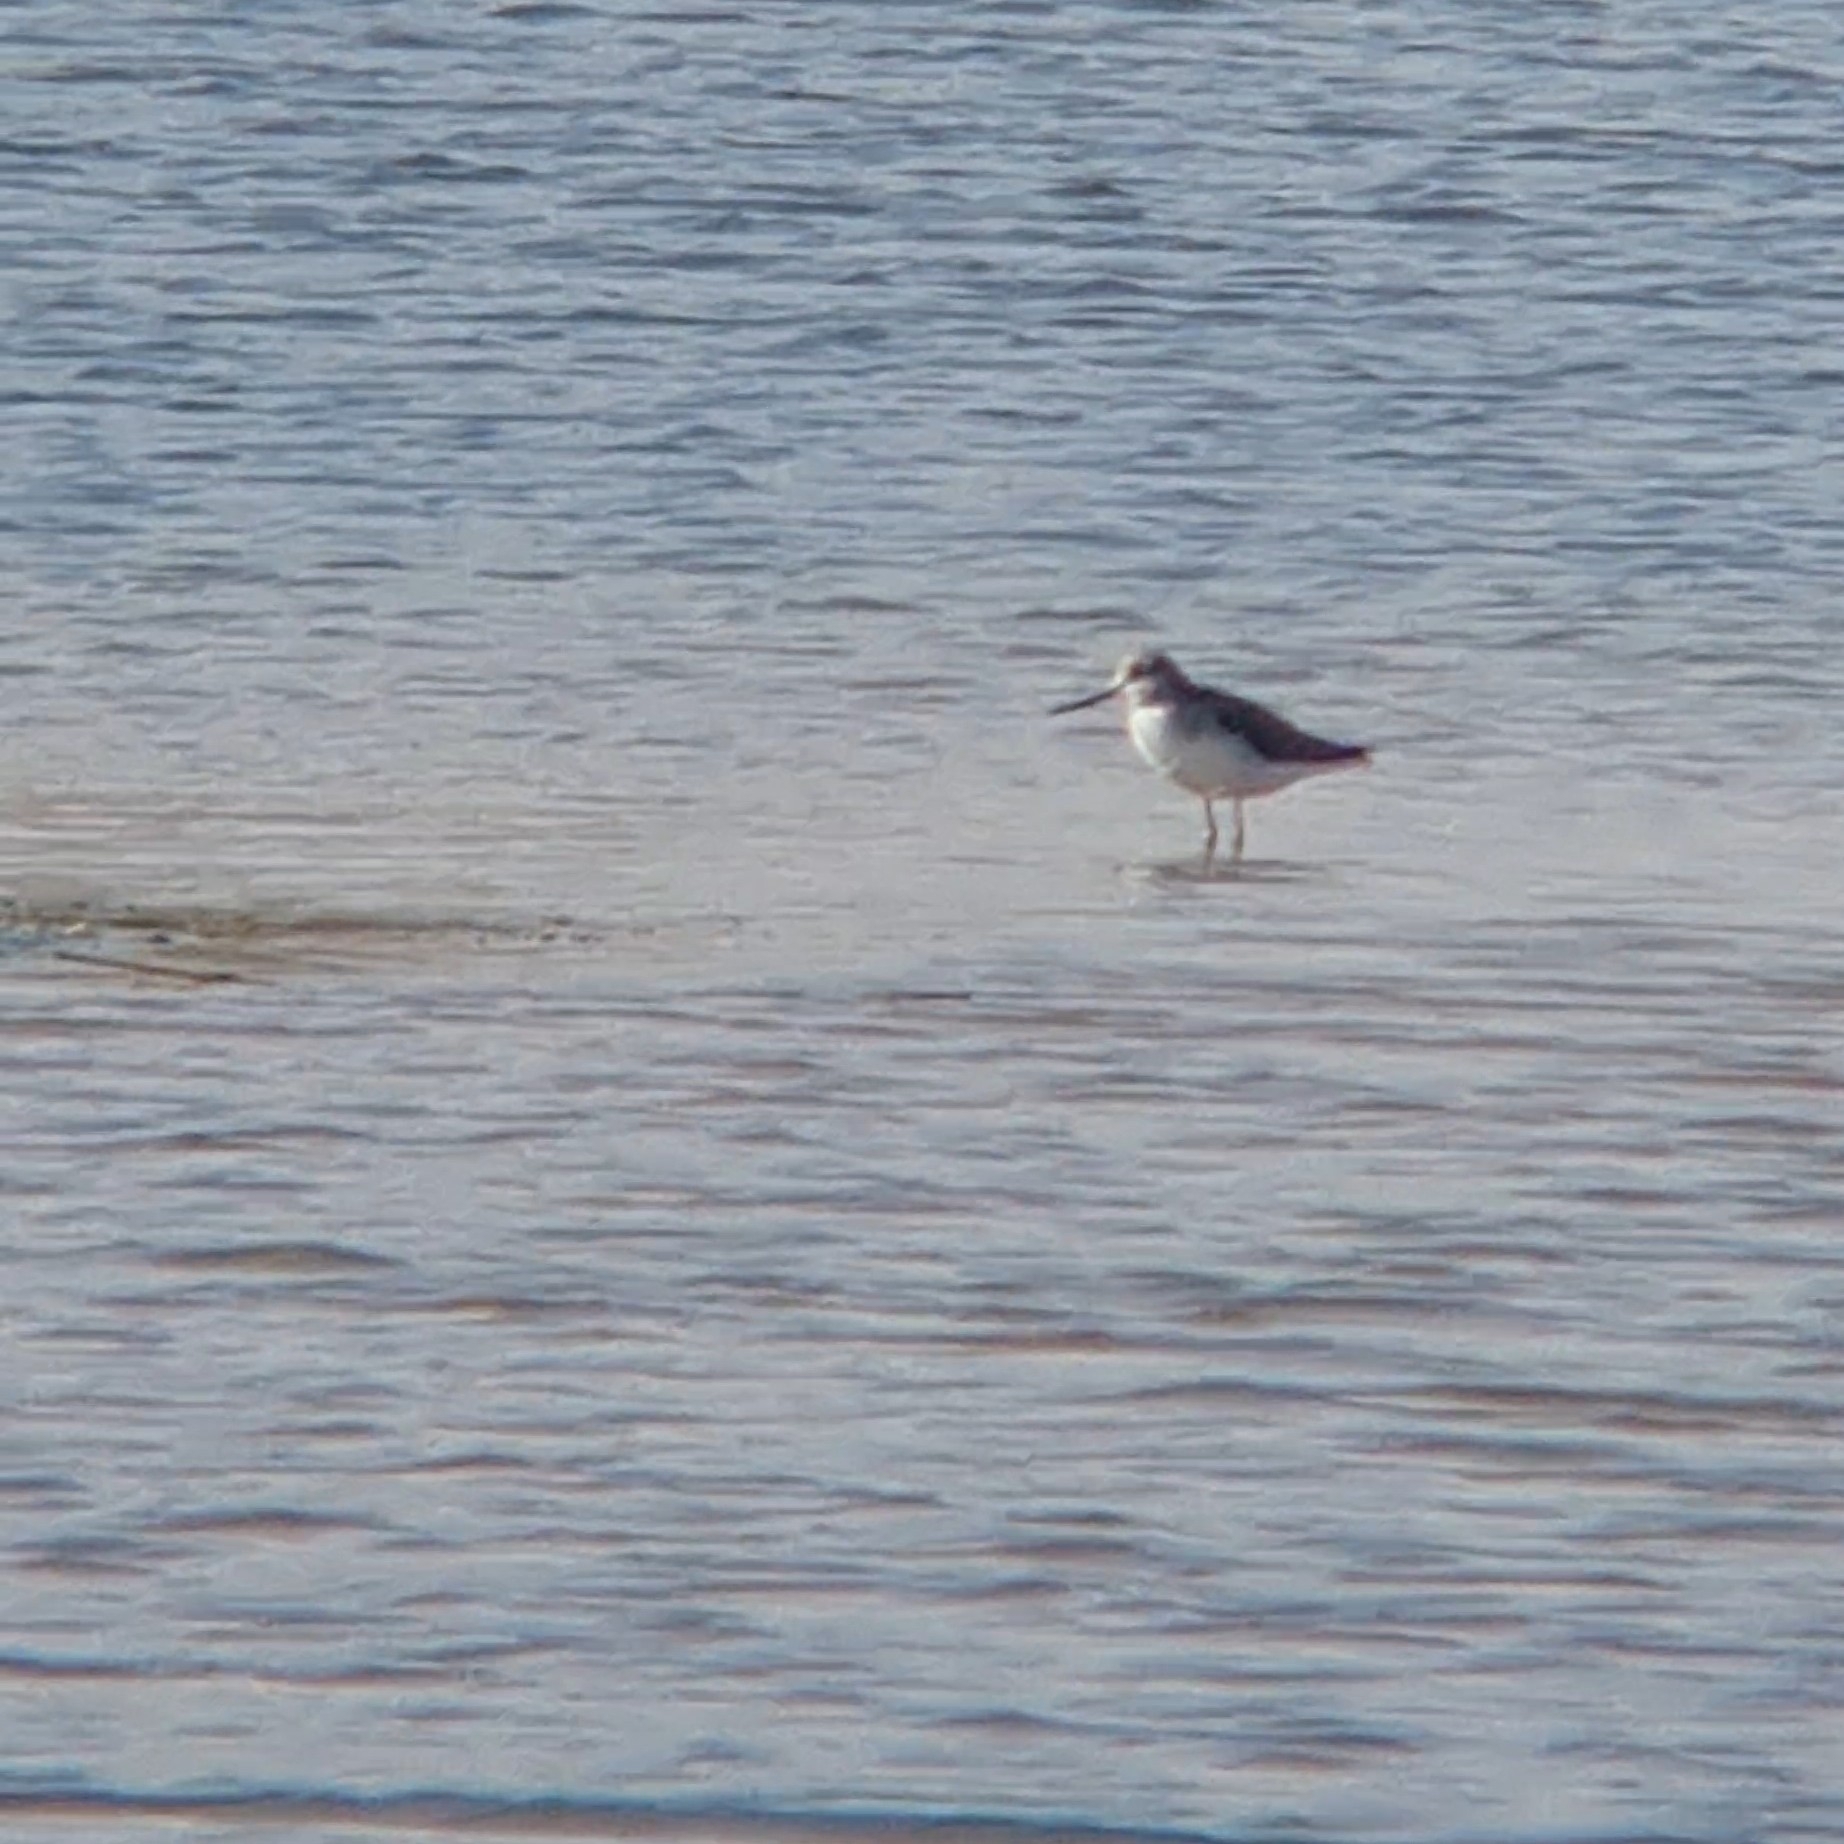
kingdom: Animalia
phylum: Chordata
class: Aves
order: Charadriiformes
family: Scolopacidae
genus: Tringa
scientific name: Tringa nebularia
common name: Common greenshank
